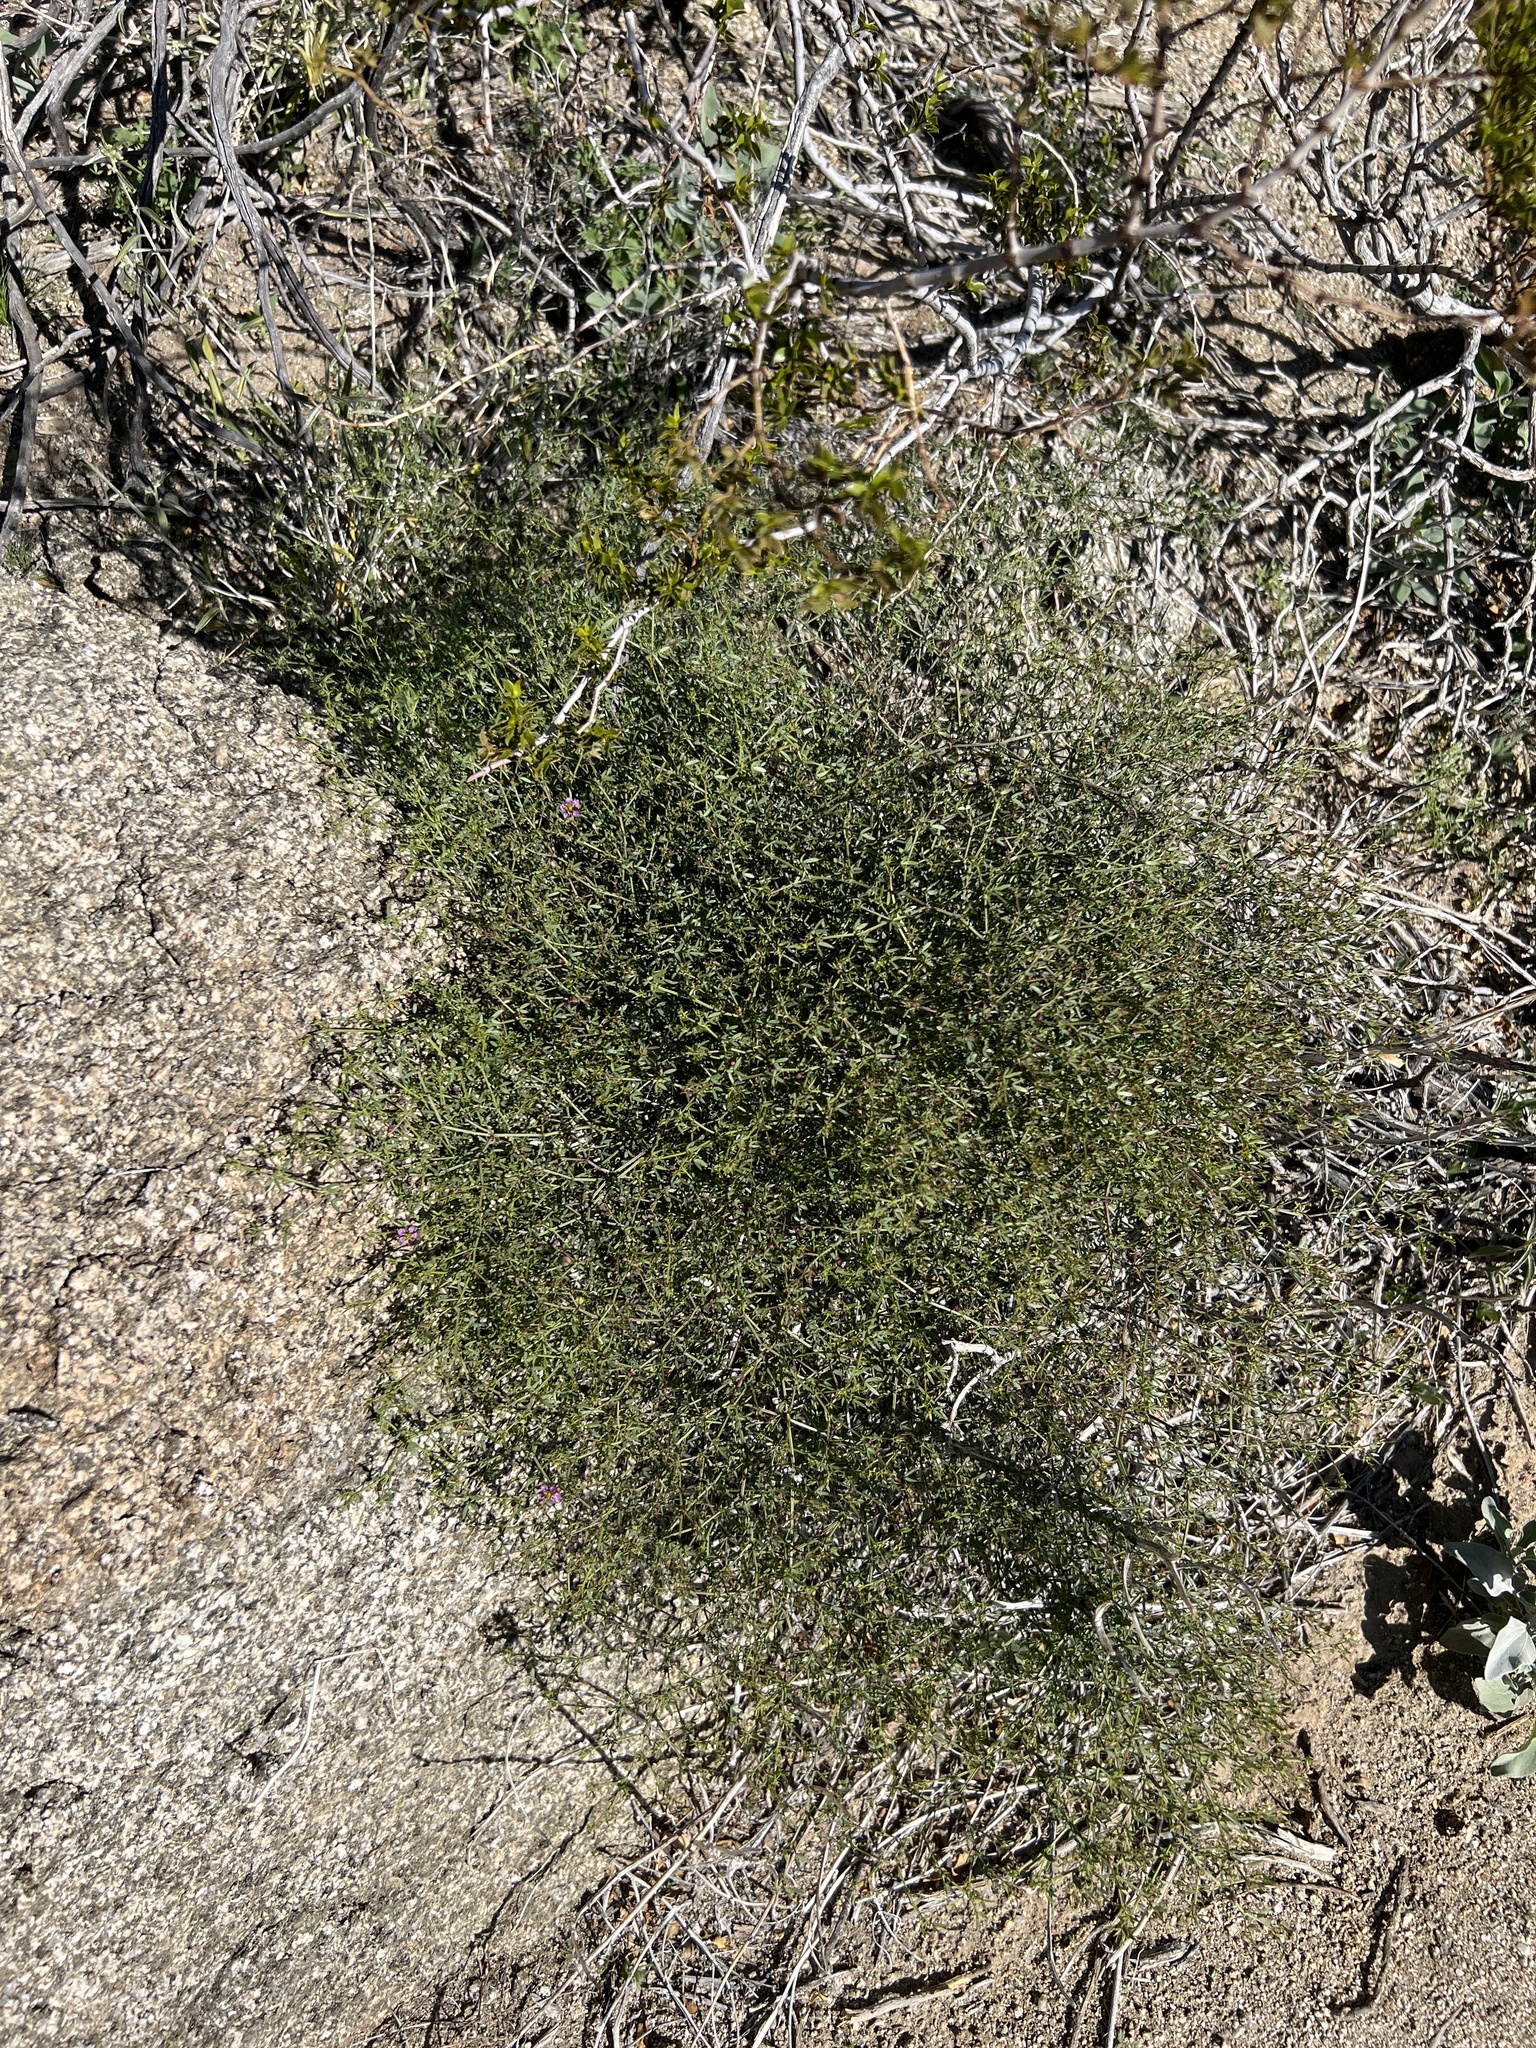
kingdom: Plantae
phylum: Tracheophyta
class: Magnoliopsida
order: Zygophyllales
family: Zygophyllaceae
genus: Fagonia
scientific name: Fagonia laevis
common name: California fagonbush
